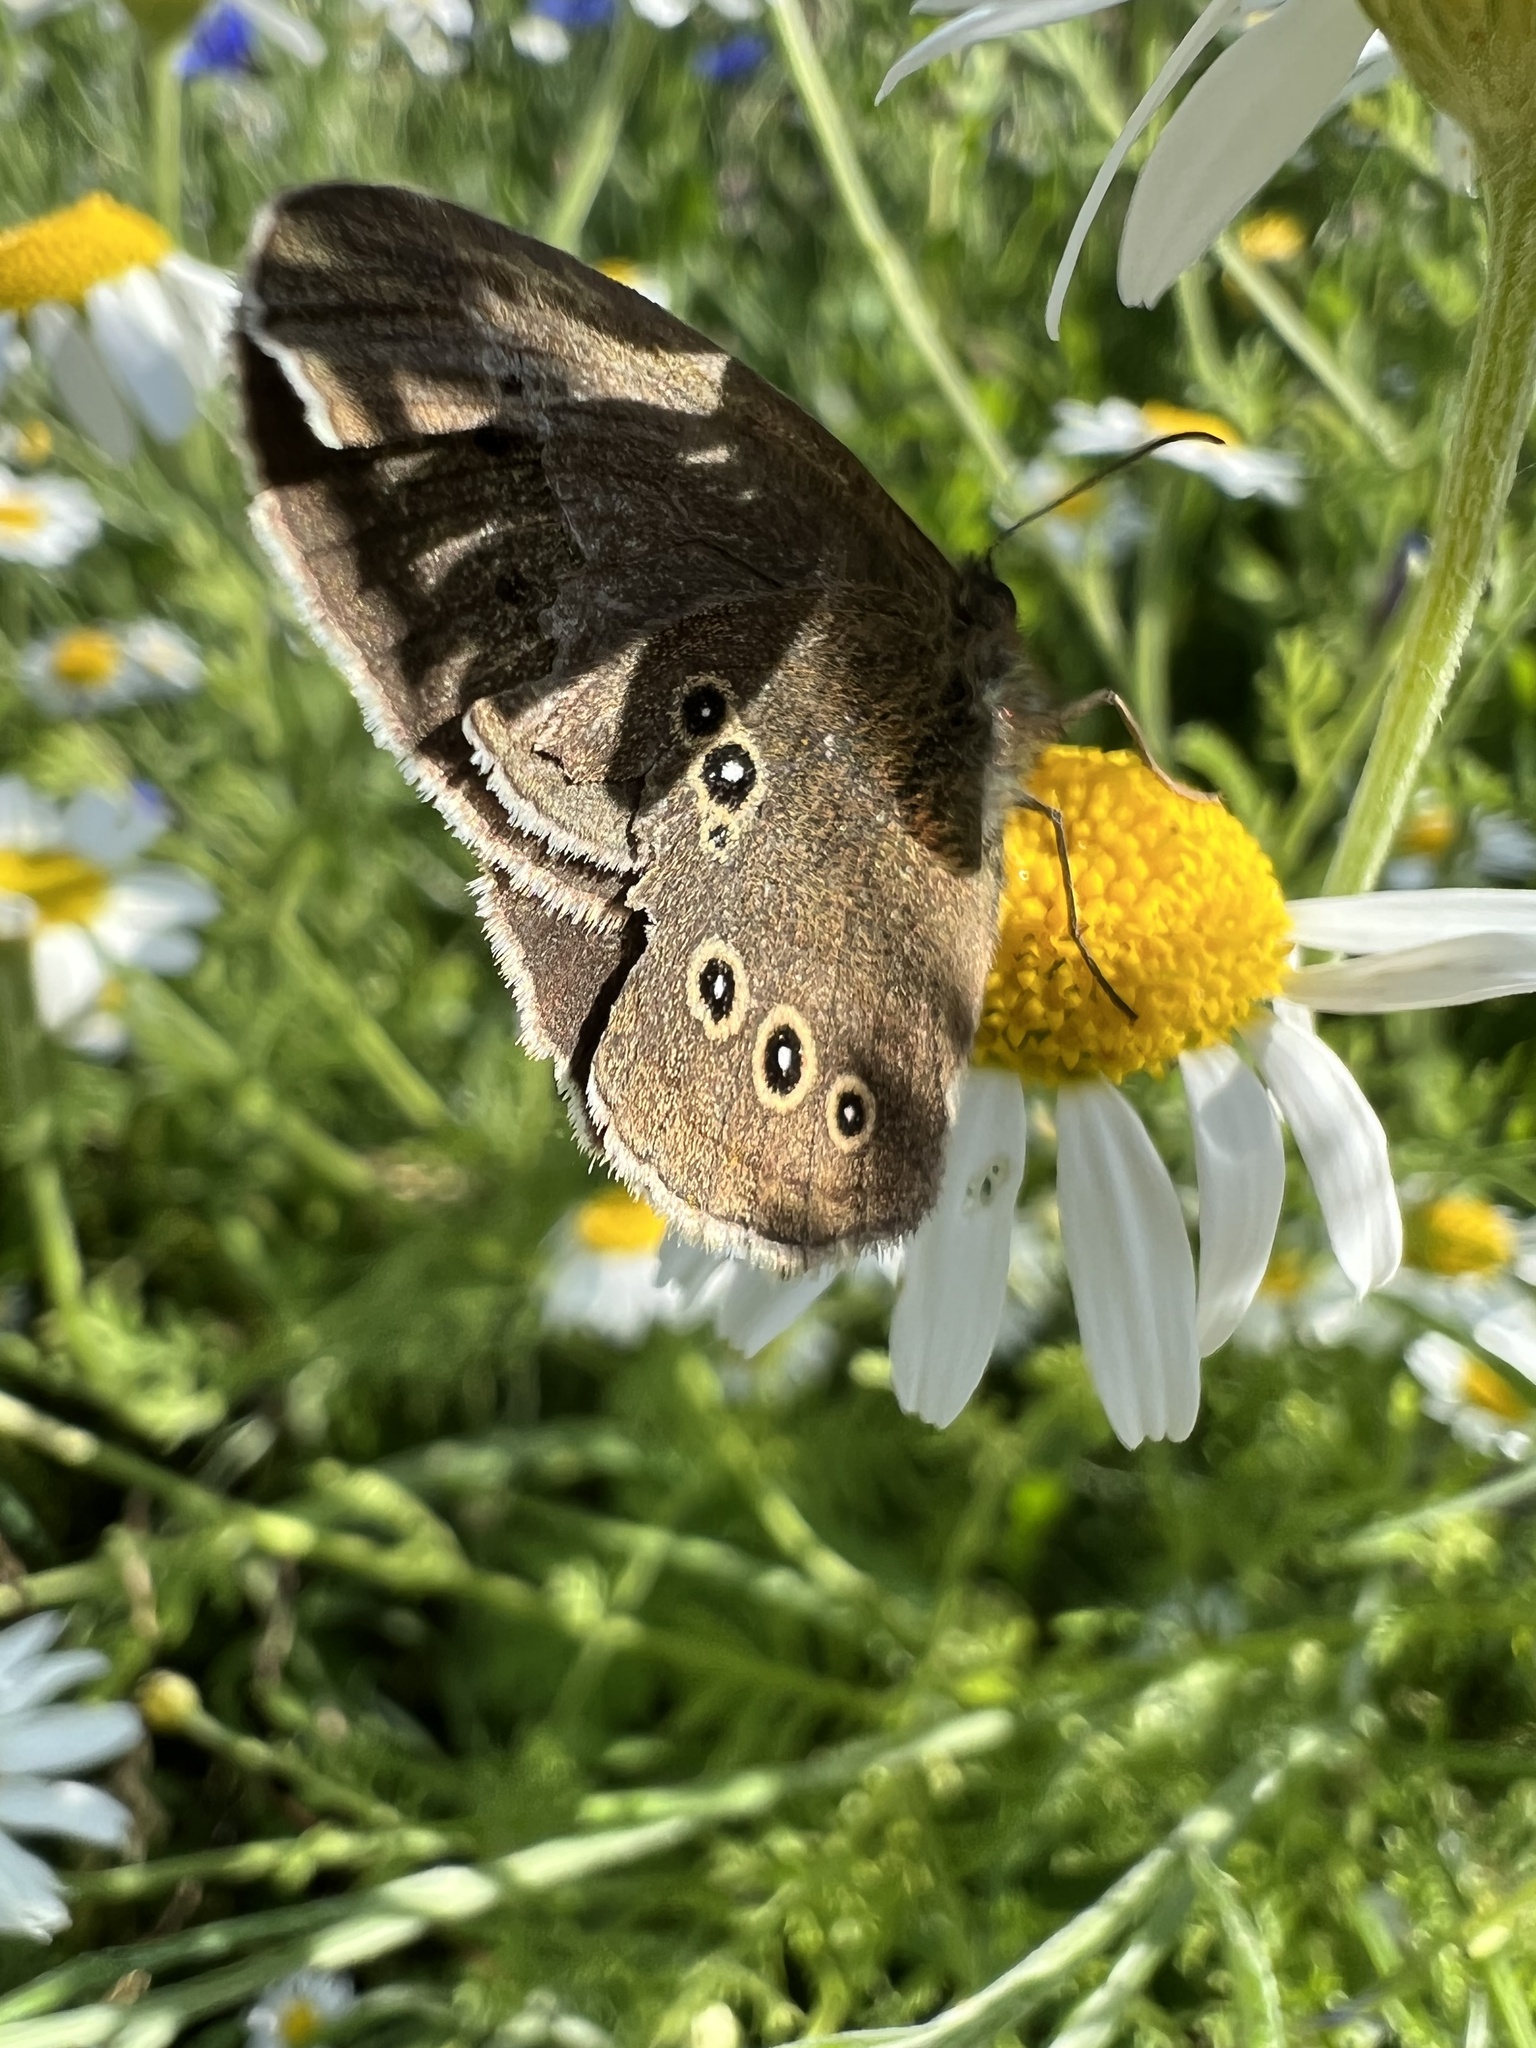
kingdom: Animalia
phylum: Arthropoda
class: Insecta
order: Lepidoptera
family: Nymphalidae
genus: Aphantopus
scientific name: Aphantopus hyperantus
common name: Ringlet
